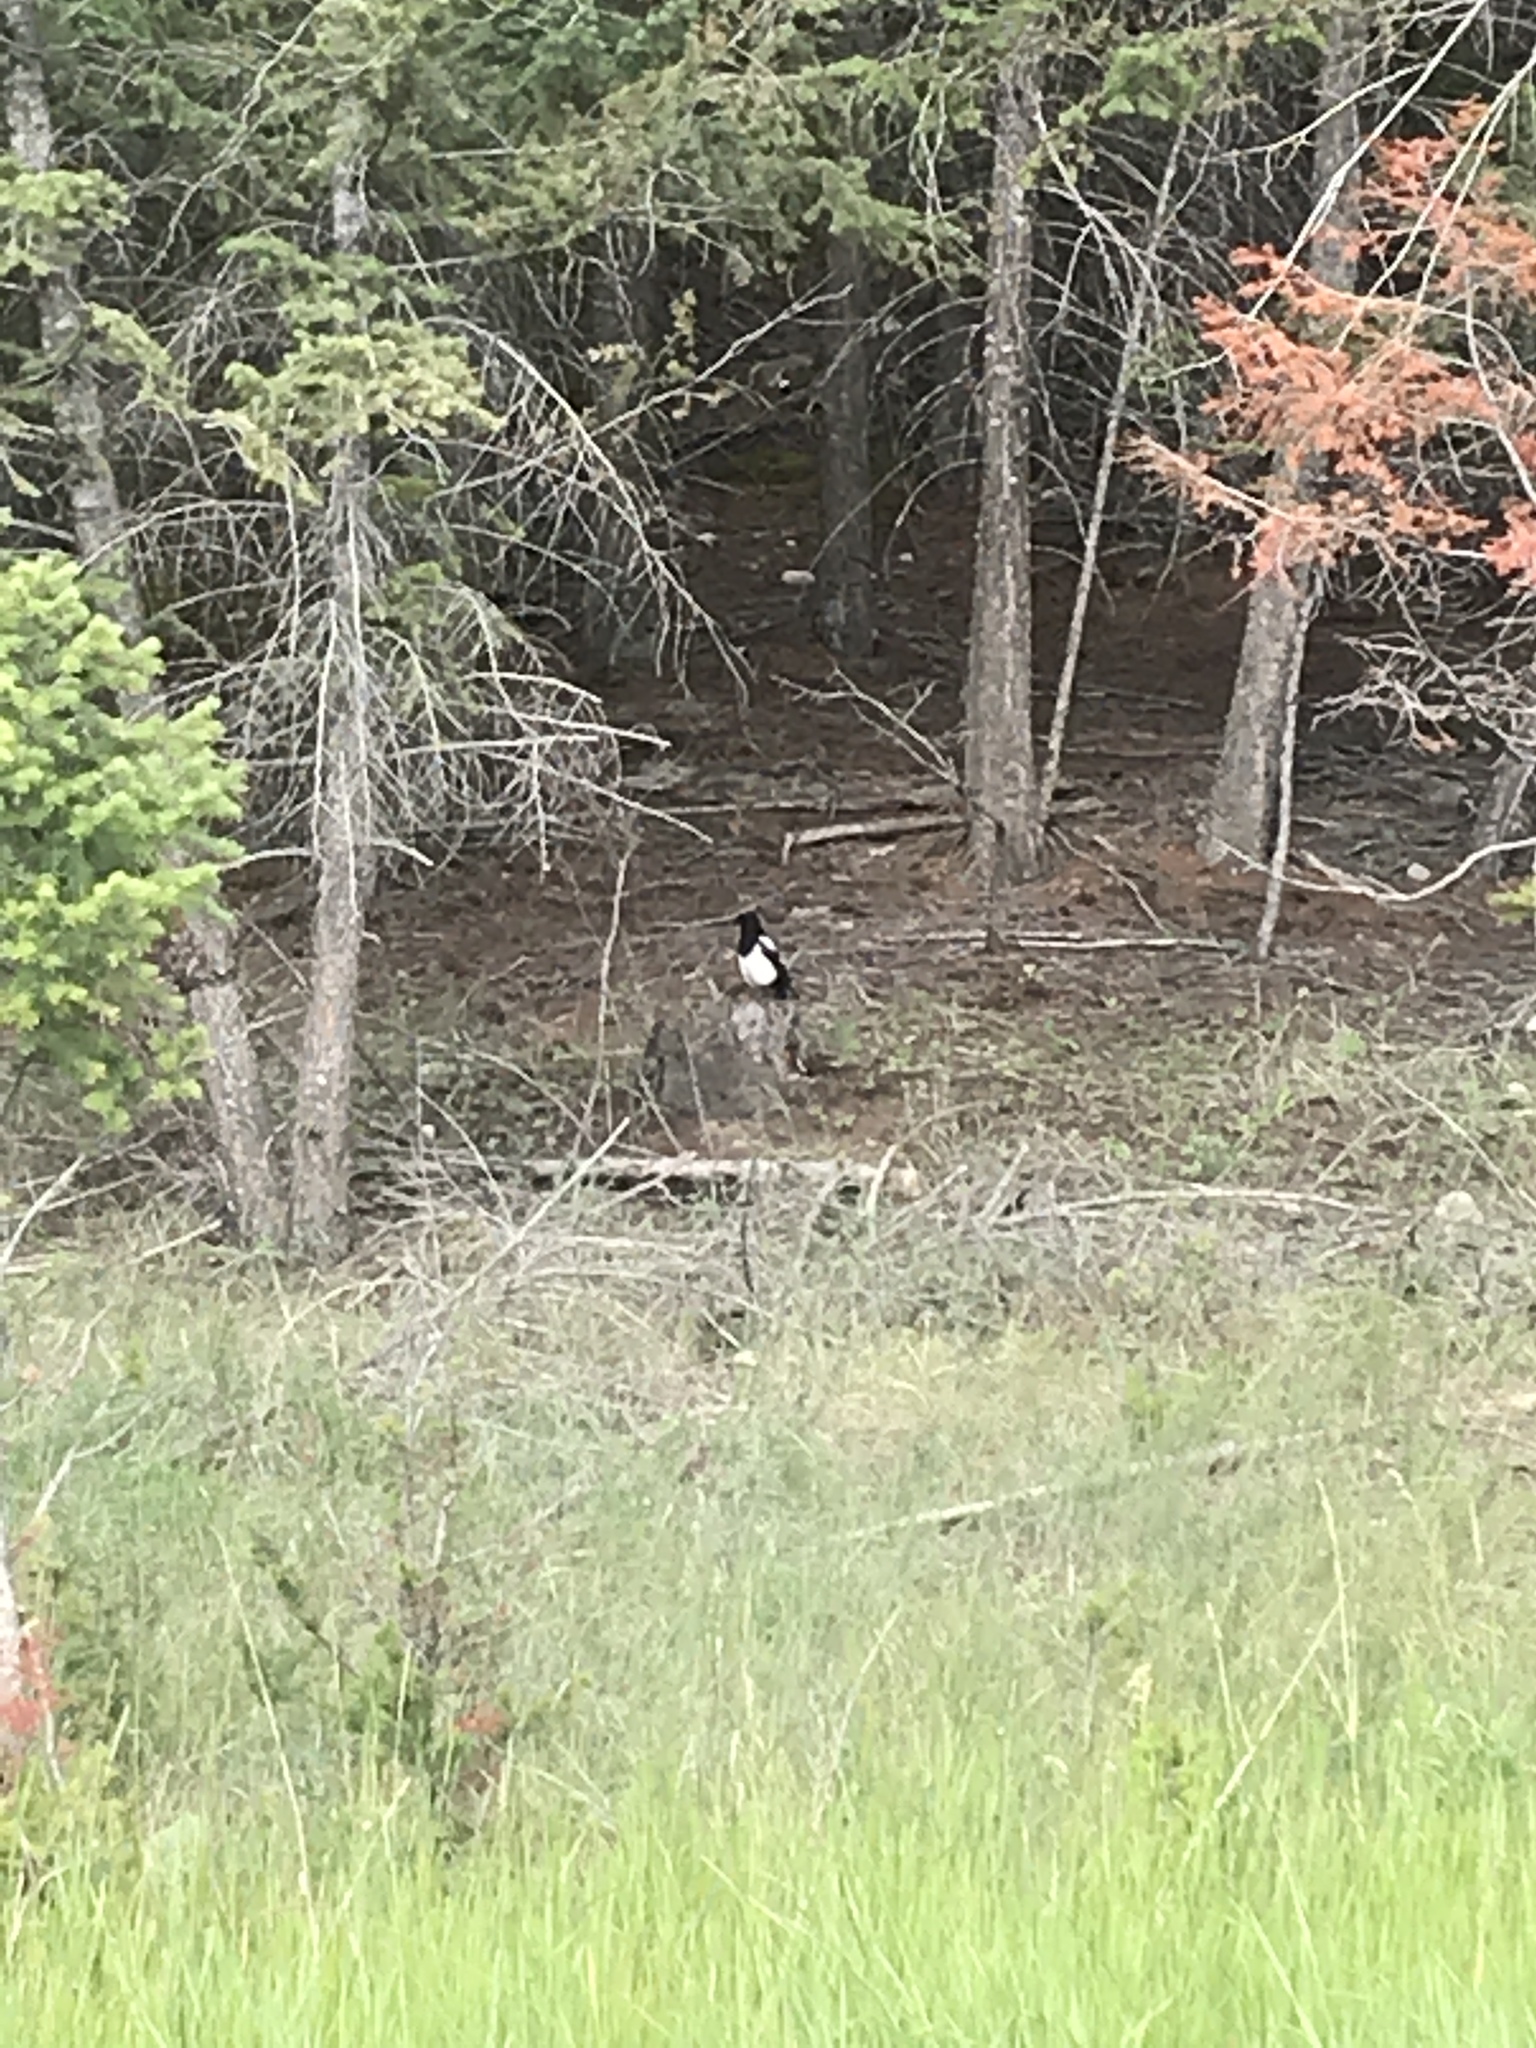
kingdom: Animalia
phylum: Chordata
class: Aves
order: Passeriformes
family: Corvidae
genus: Pica
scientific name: Pica hudsonia
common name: Black-billed magpie
